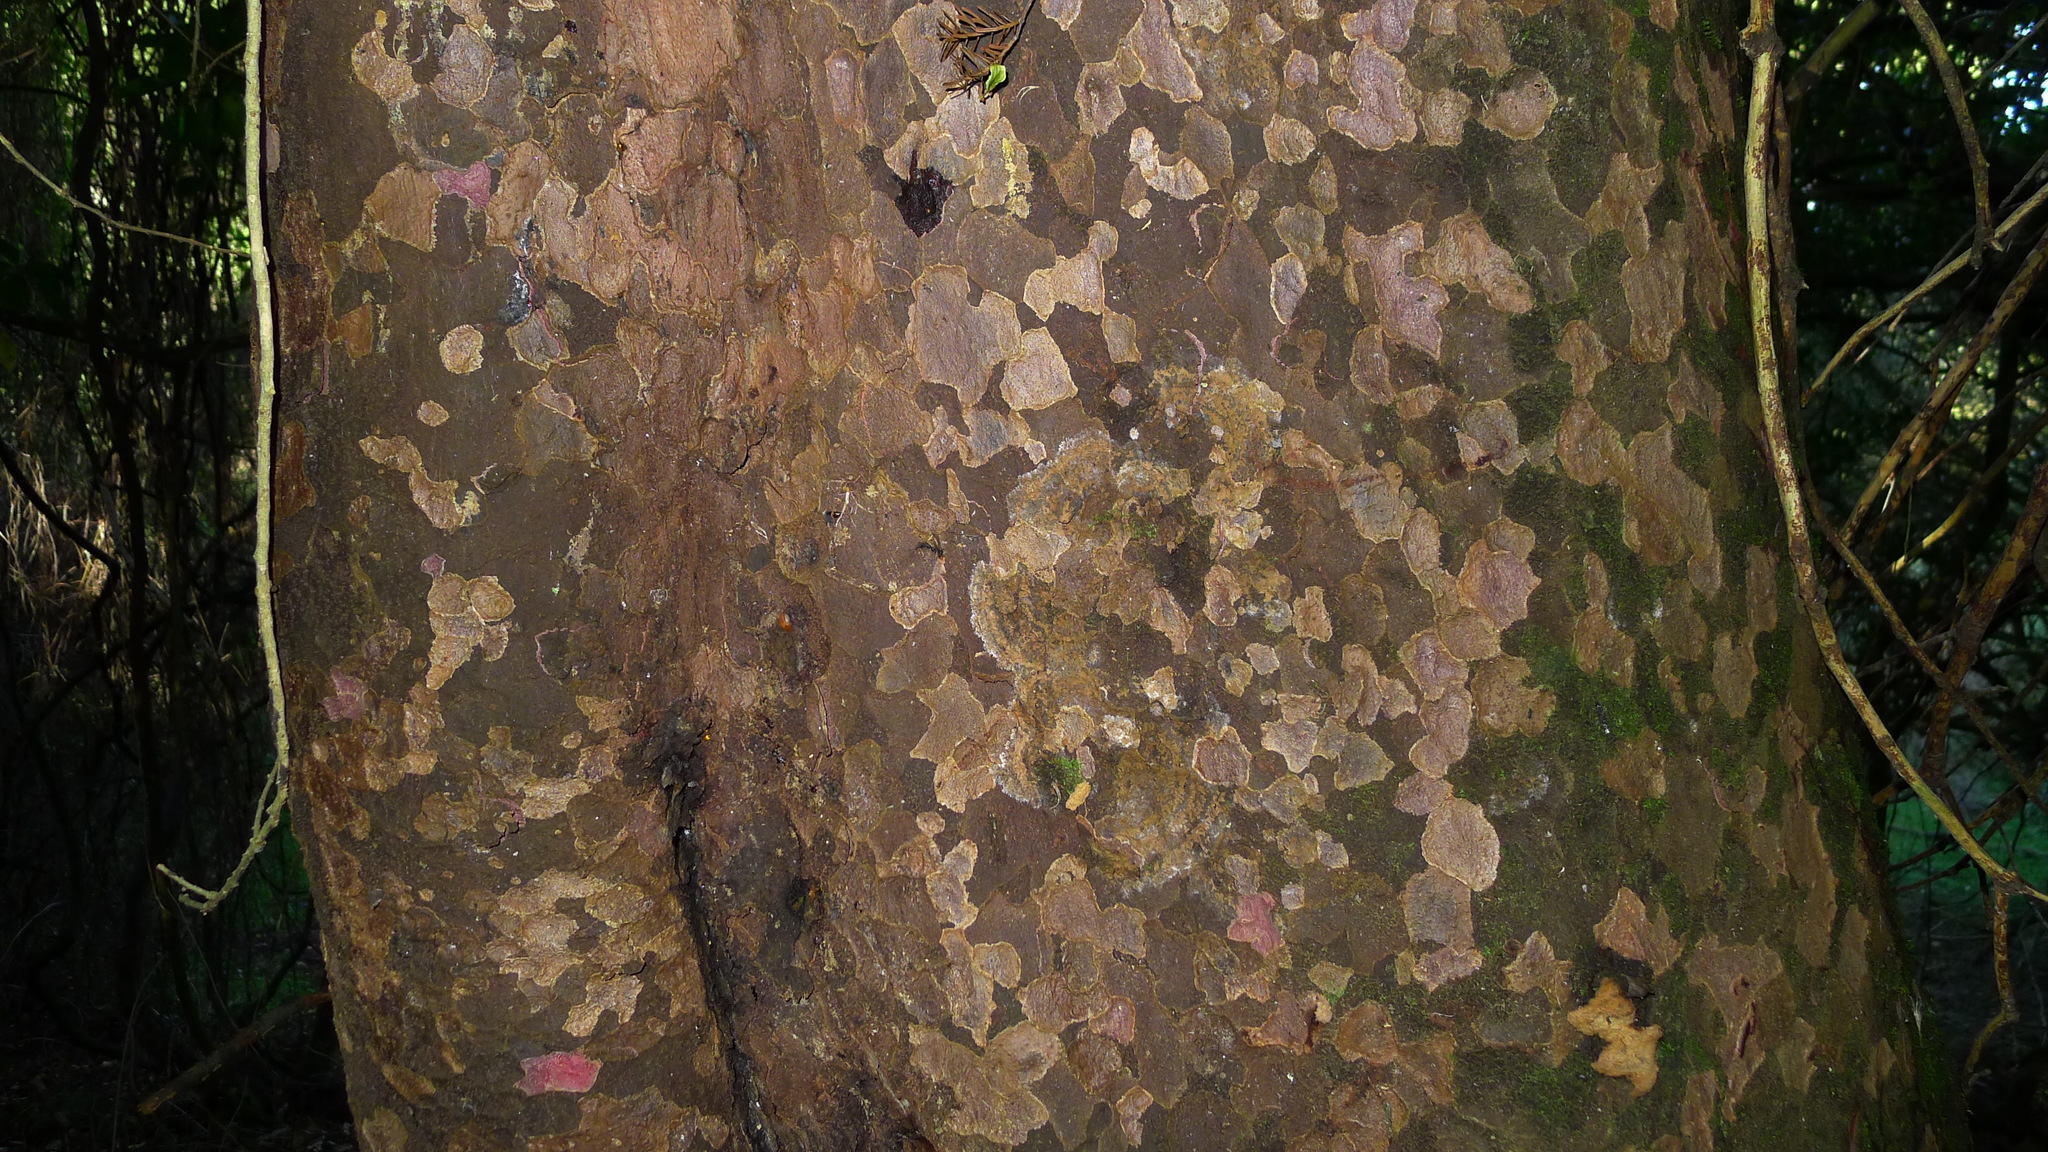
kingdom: Plantae
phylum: Tracheophyta
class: Pinopsida
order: Pinales
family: Podocarpaceae
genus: Prumnopitys
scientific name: Prumnopitys taxifolia
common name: Matai
